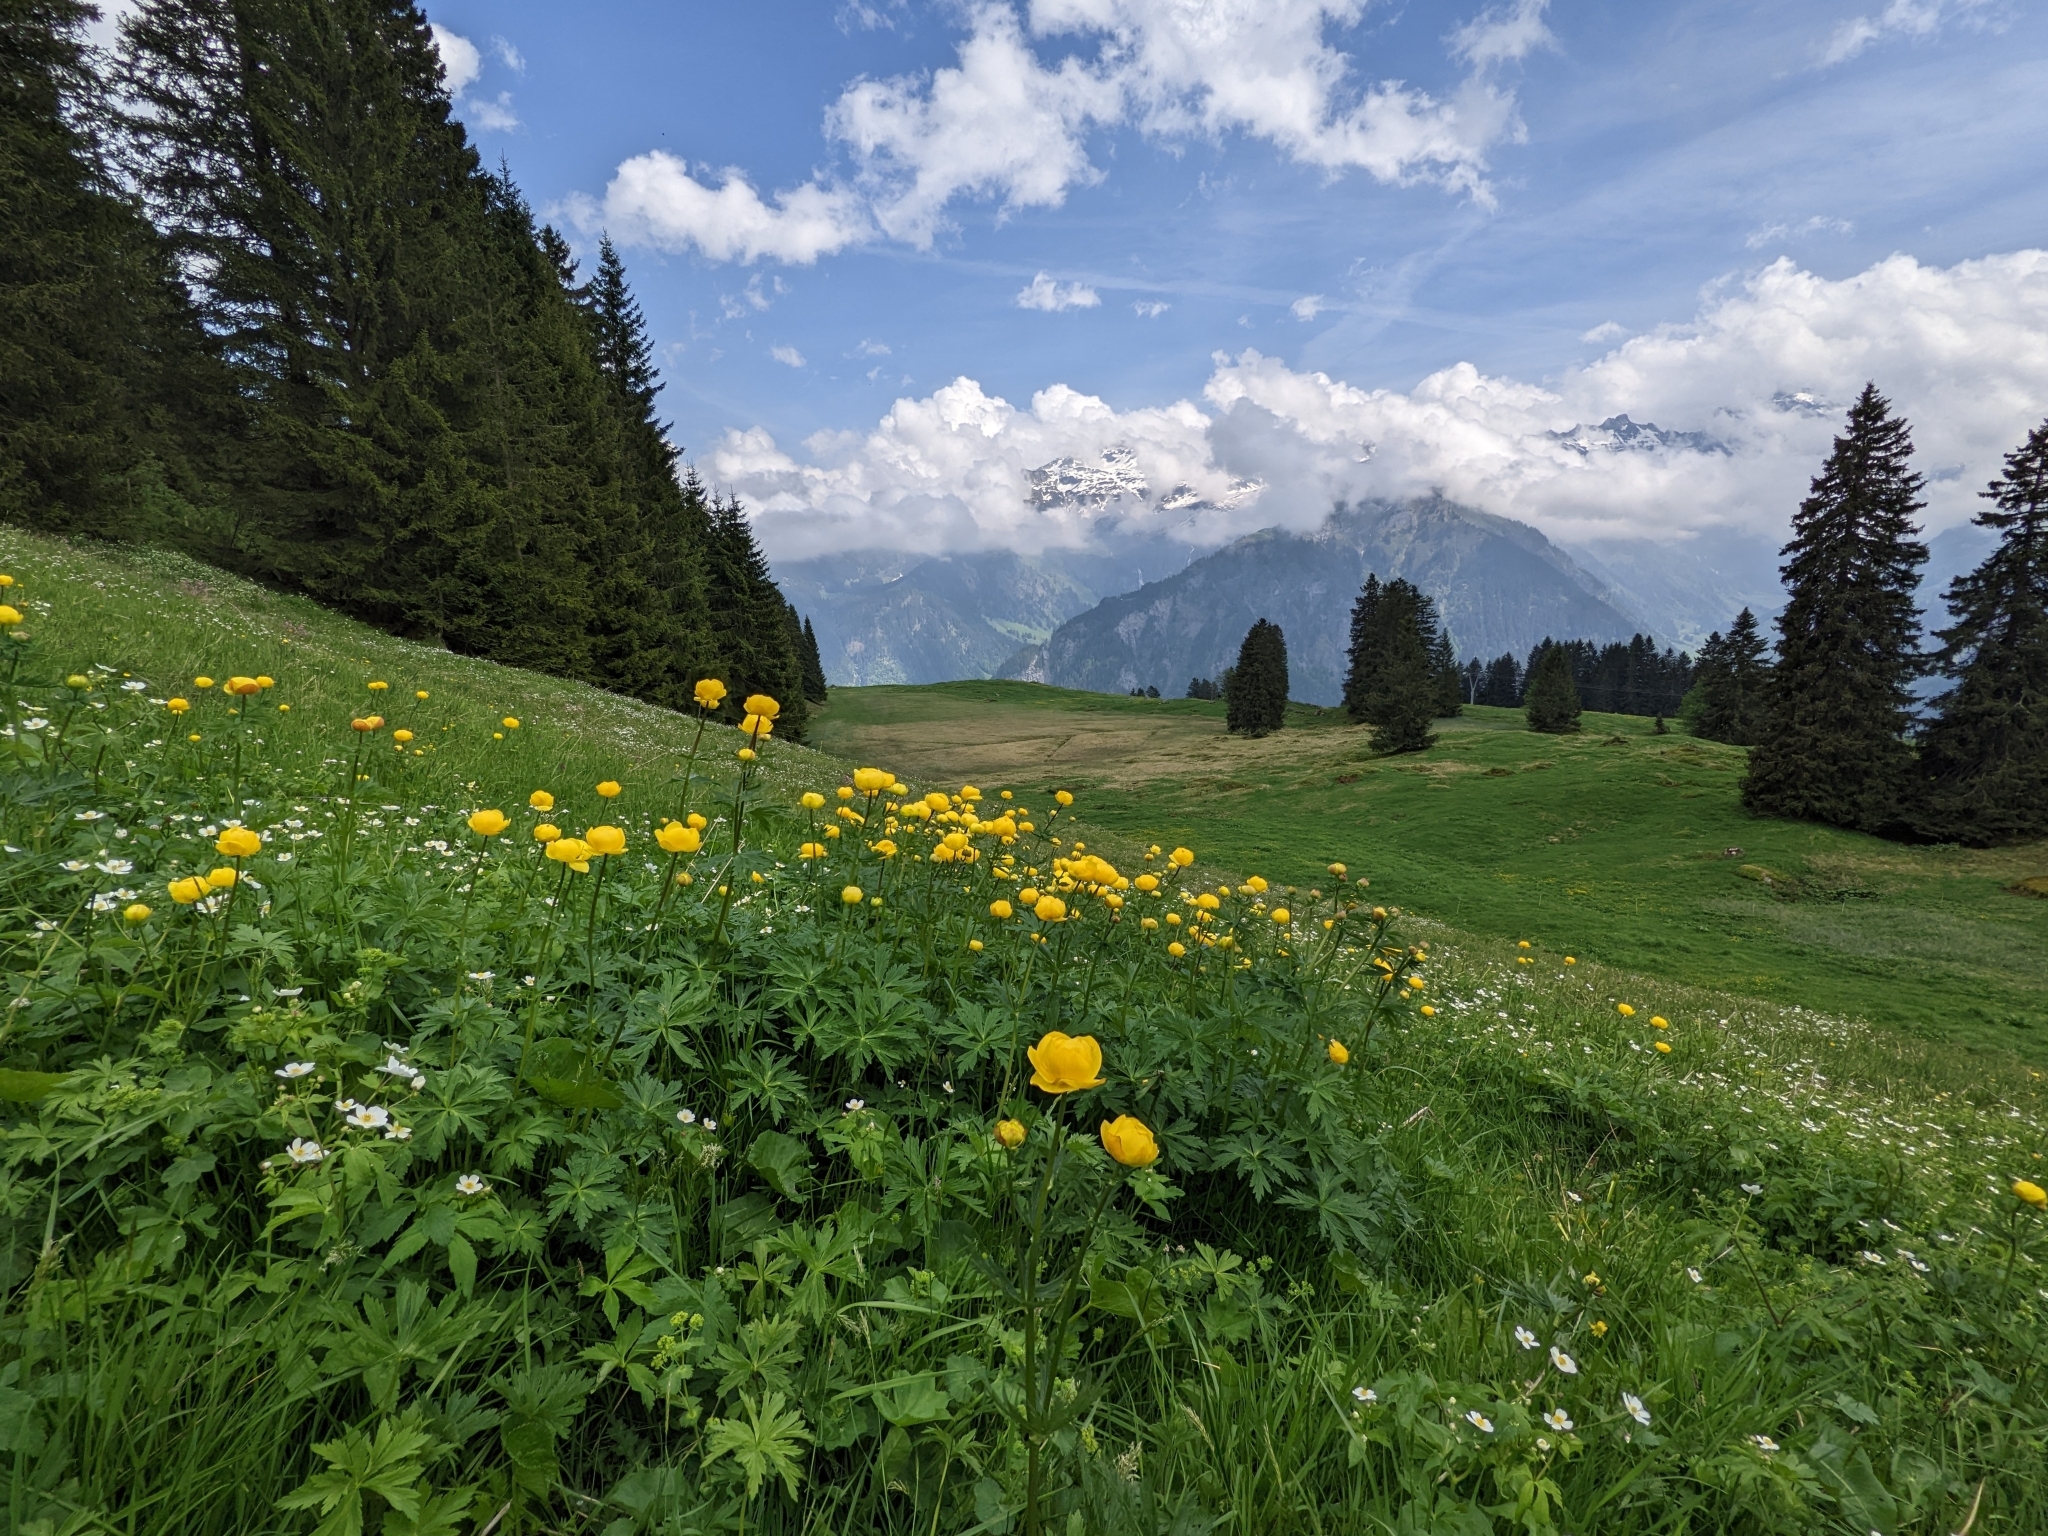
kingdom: Plantae
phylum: Tracheophyta
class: Magnoliopsida
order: Ranunculales
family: Ranunculaceae
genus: Trollius
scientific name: Trollius europaeus
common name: European globeflower
